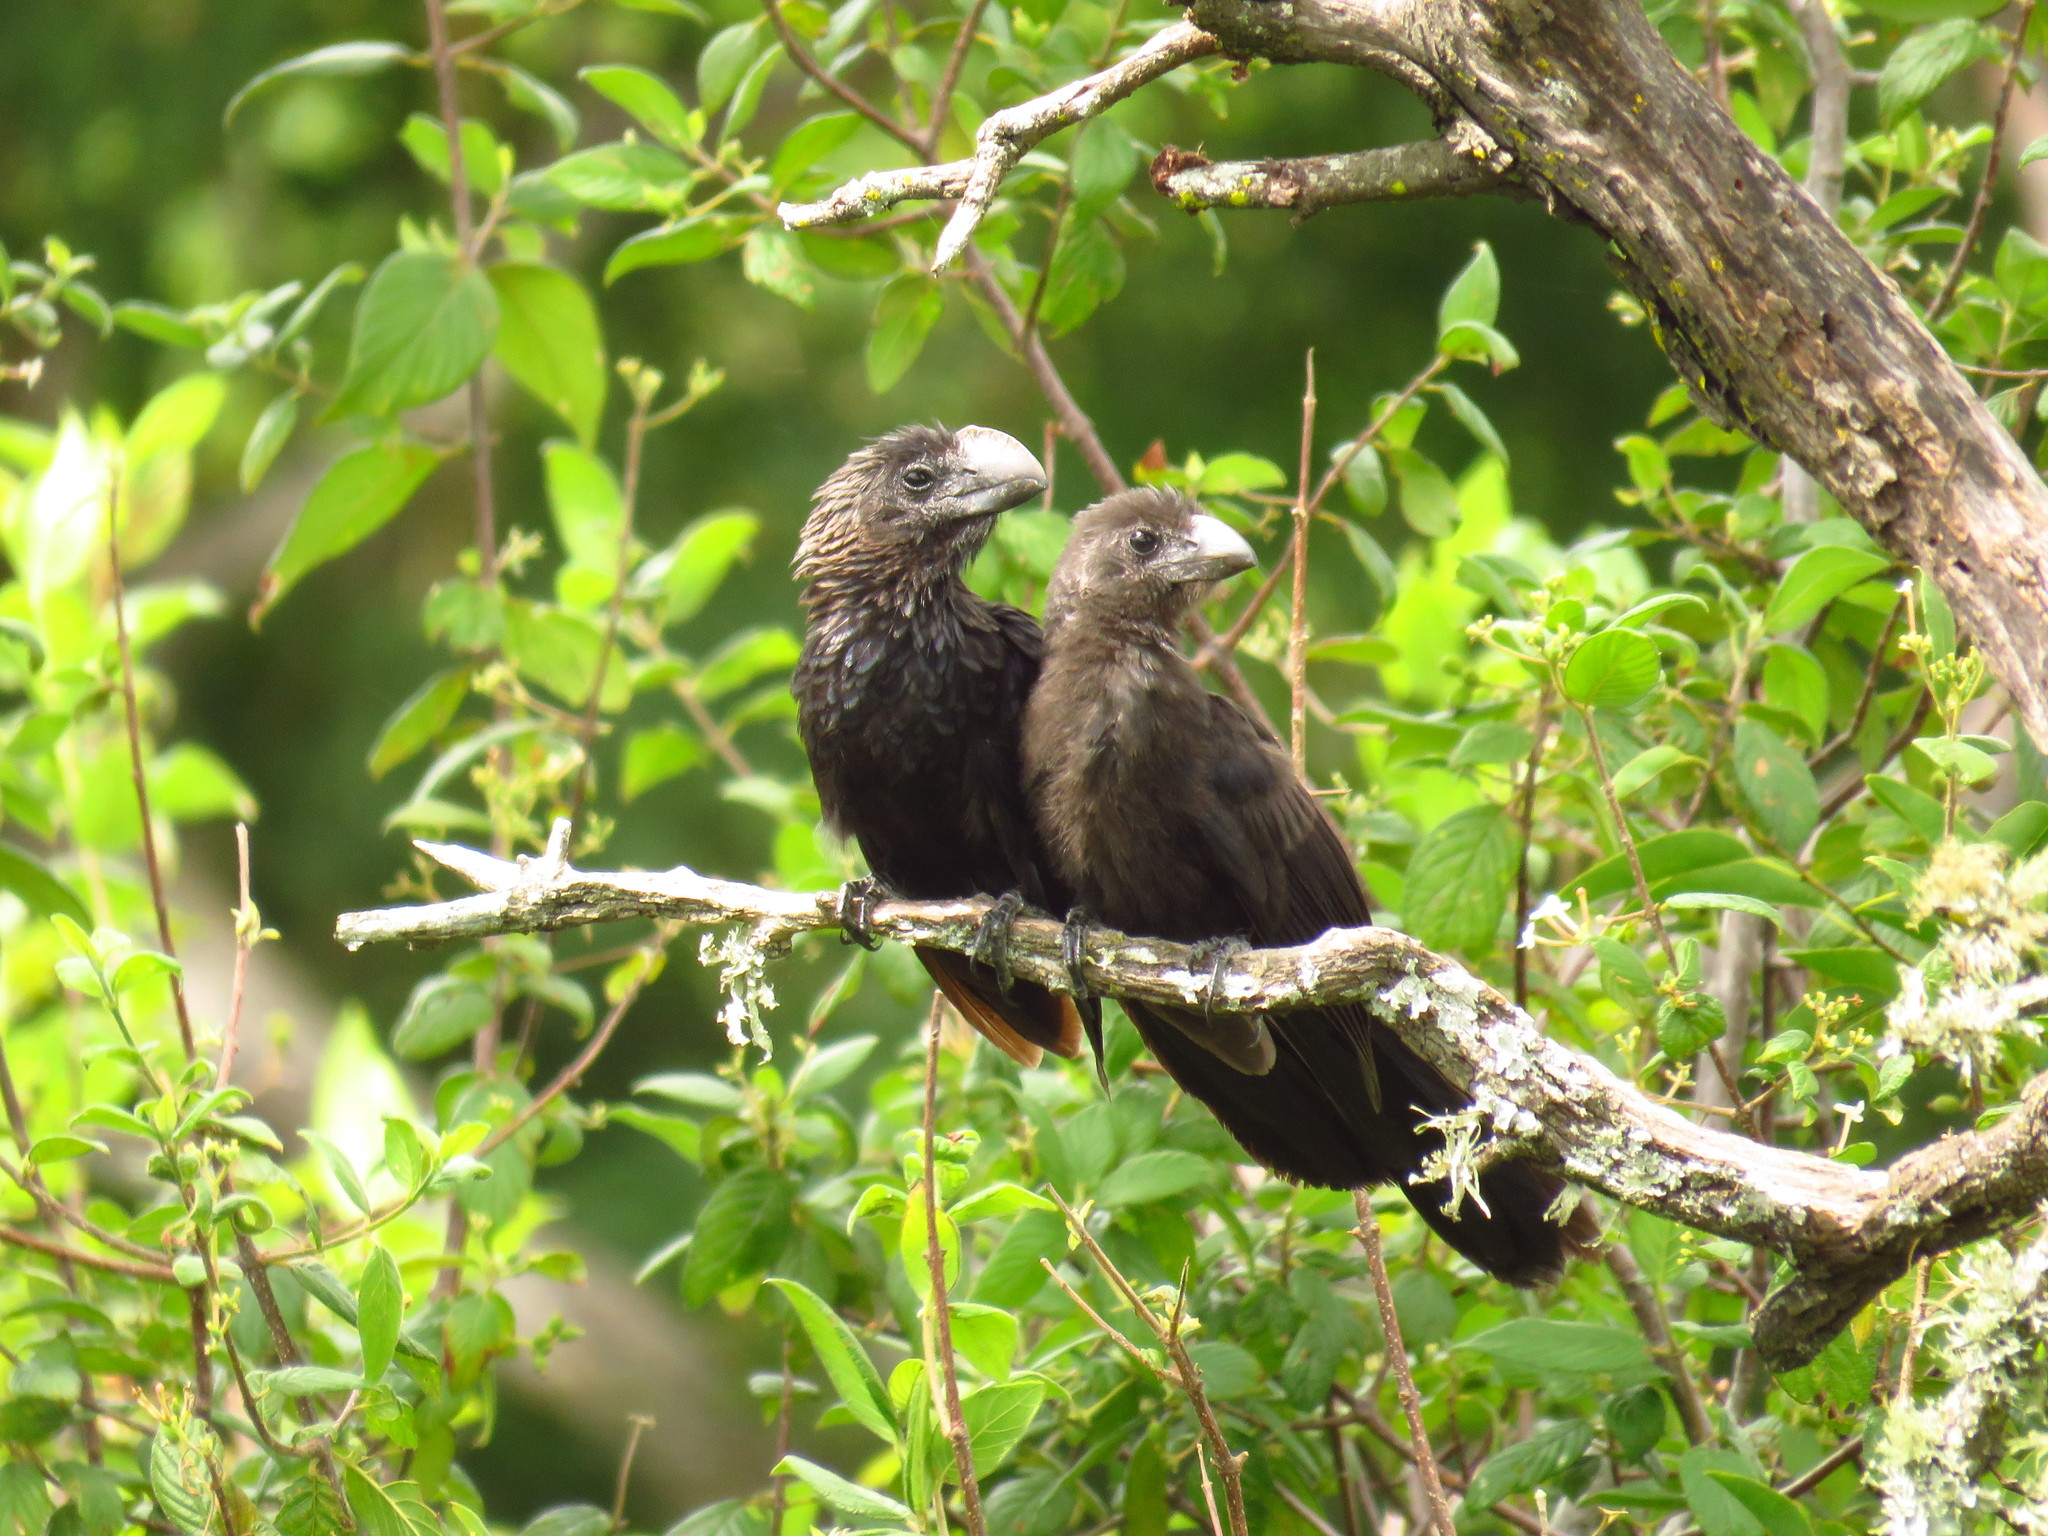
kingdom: Animalia
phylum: Chordata
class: Aves
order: Cuculiformes
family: Cuculidae
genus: Crotophaga
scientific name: Crotophaga ani
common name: Smooth-billed ani
